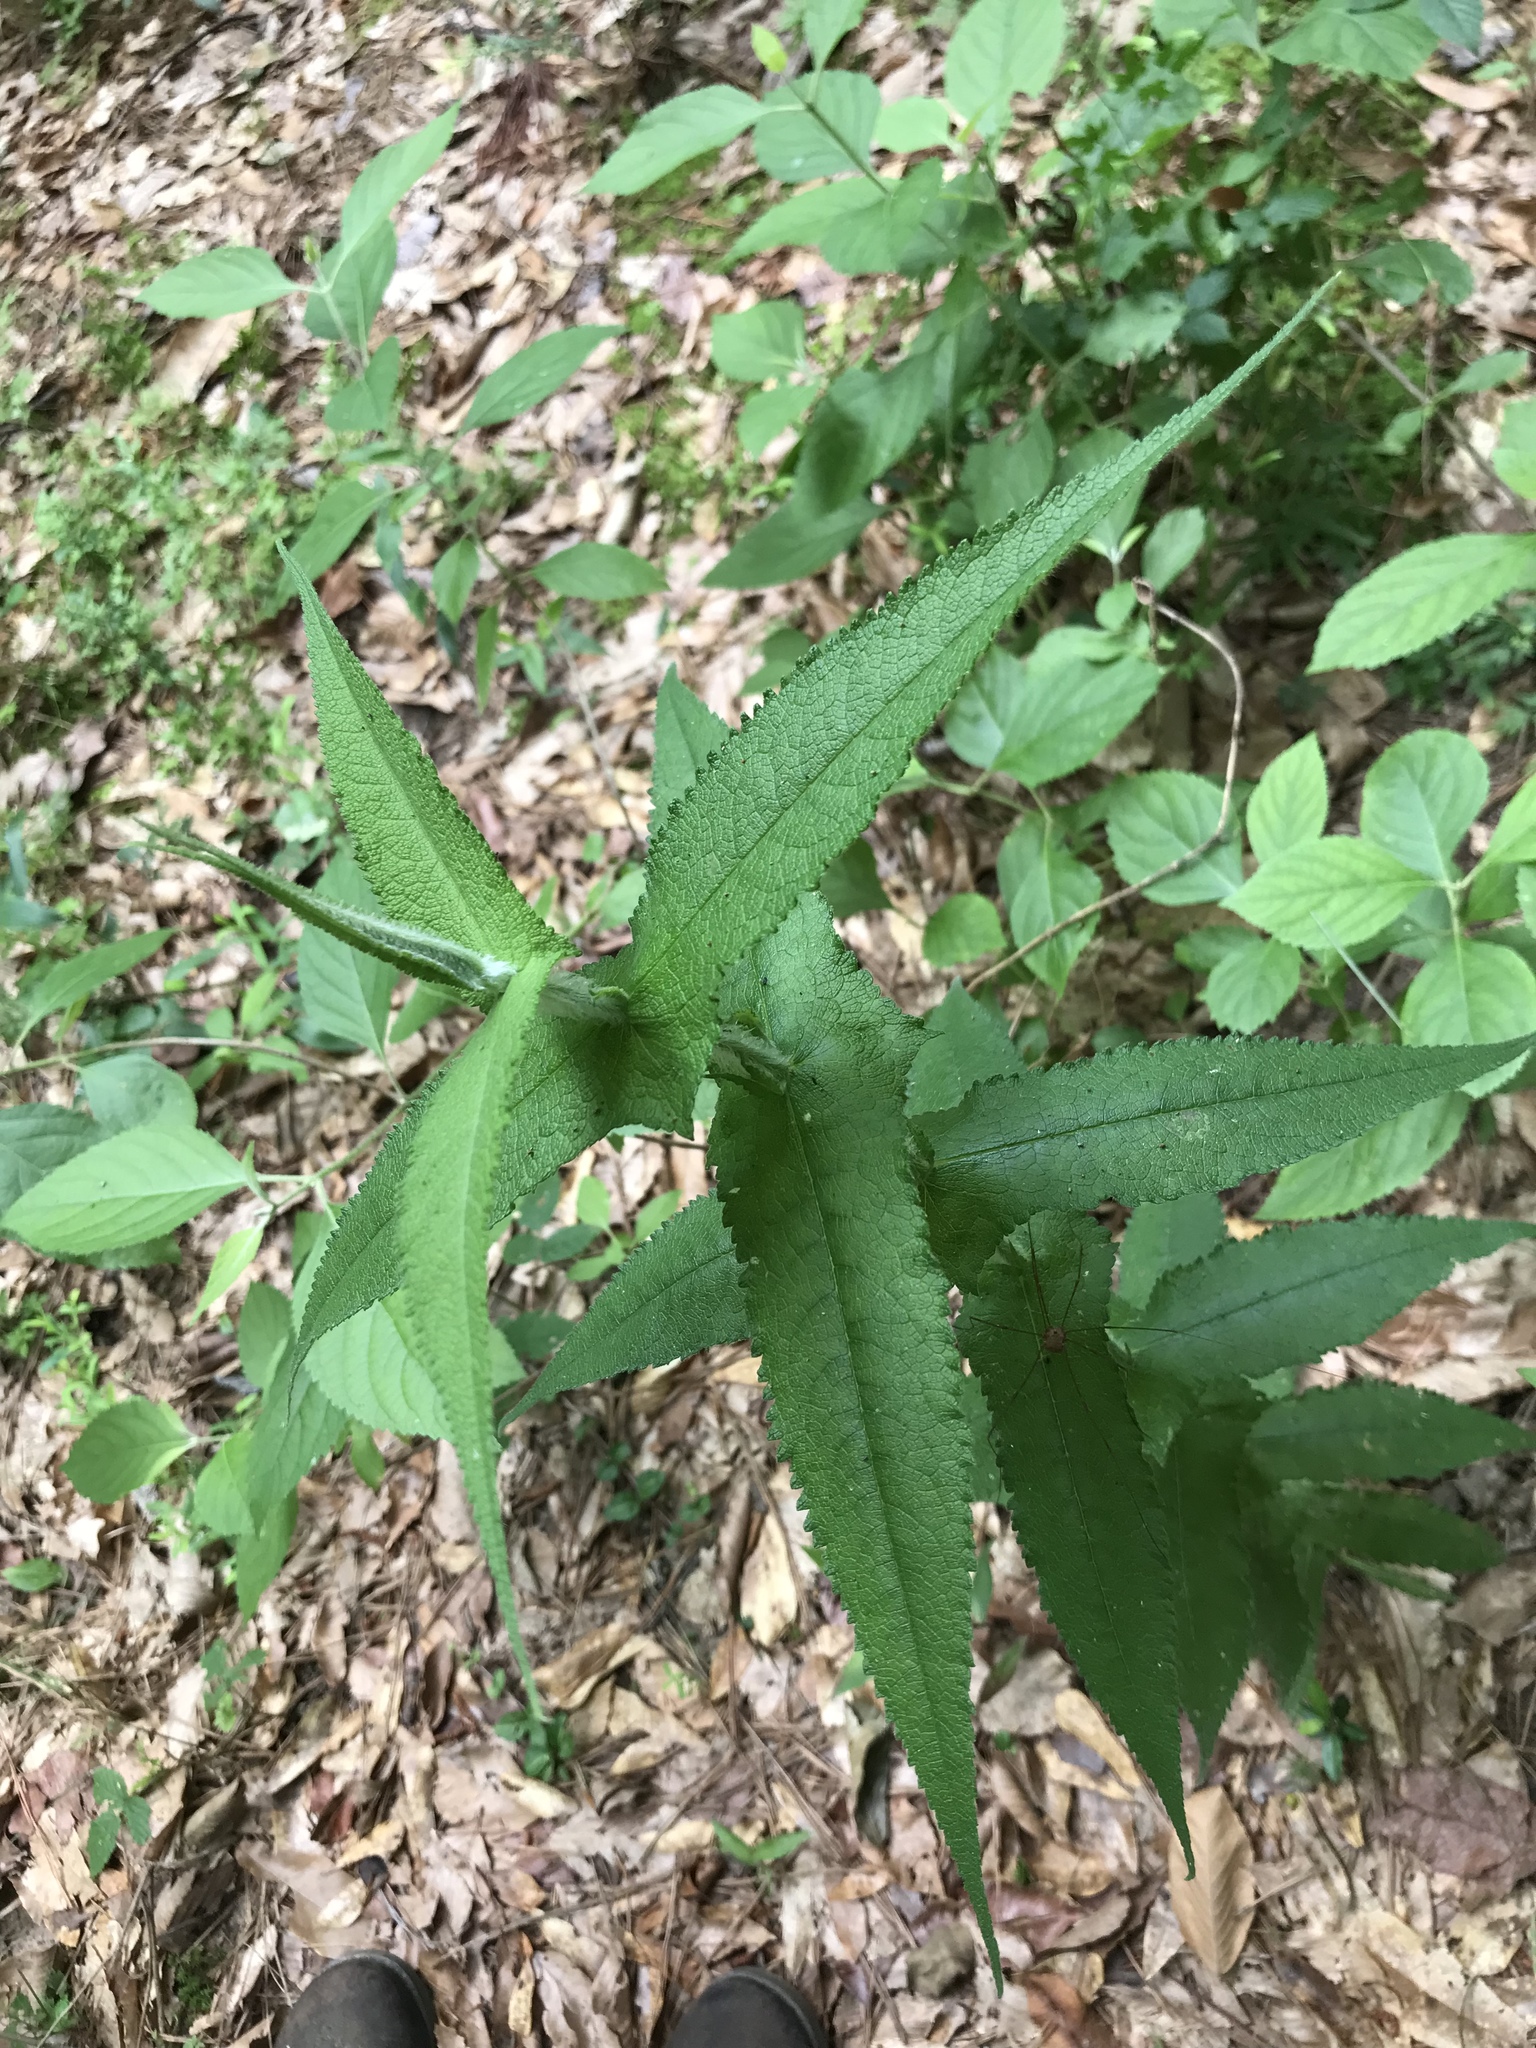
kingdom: Plantae
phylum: Tracheophyta
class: Magnoliopsida
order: Asterales
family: Asteraceae
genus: Eupatorium
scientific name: Eupatorium perfoliatum
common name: Boneset
